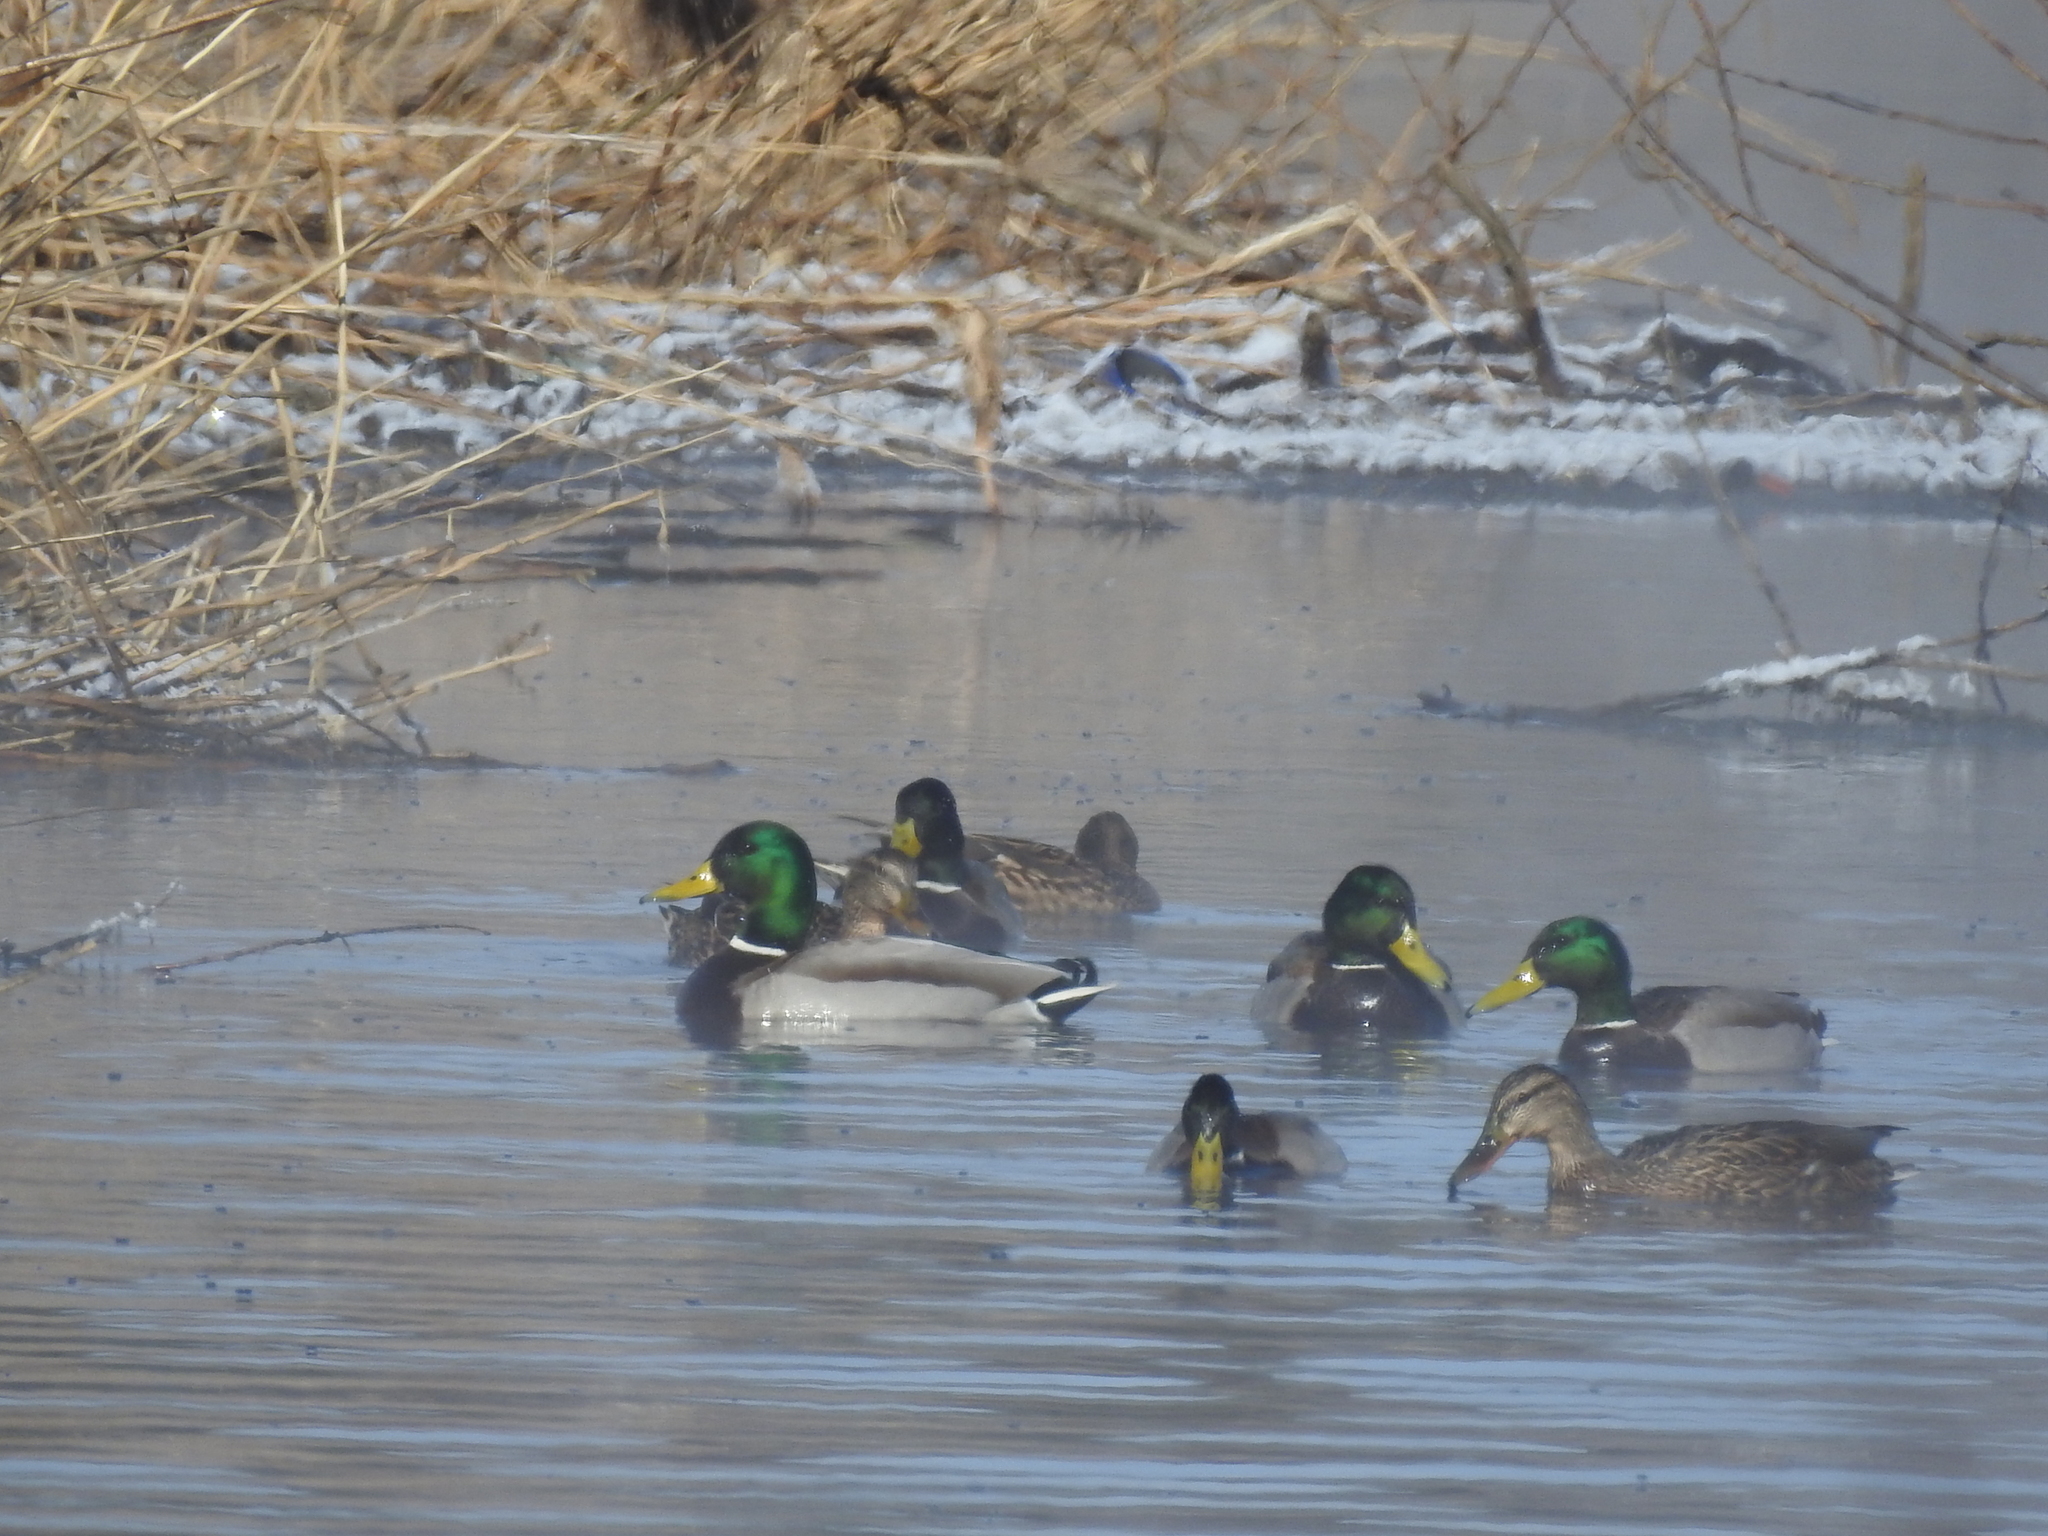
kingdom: Animalia
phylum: Chordata
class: Aves
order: Anseriformes
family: Anatidae
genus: Anas
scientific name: Anas platyrhynchos
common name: Mallard
